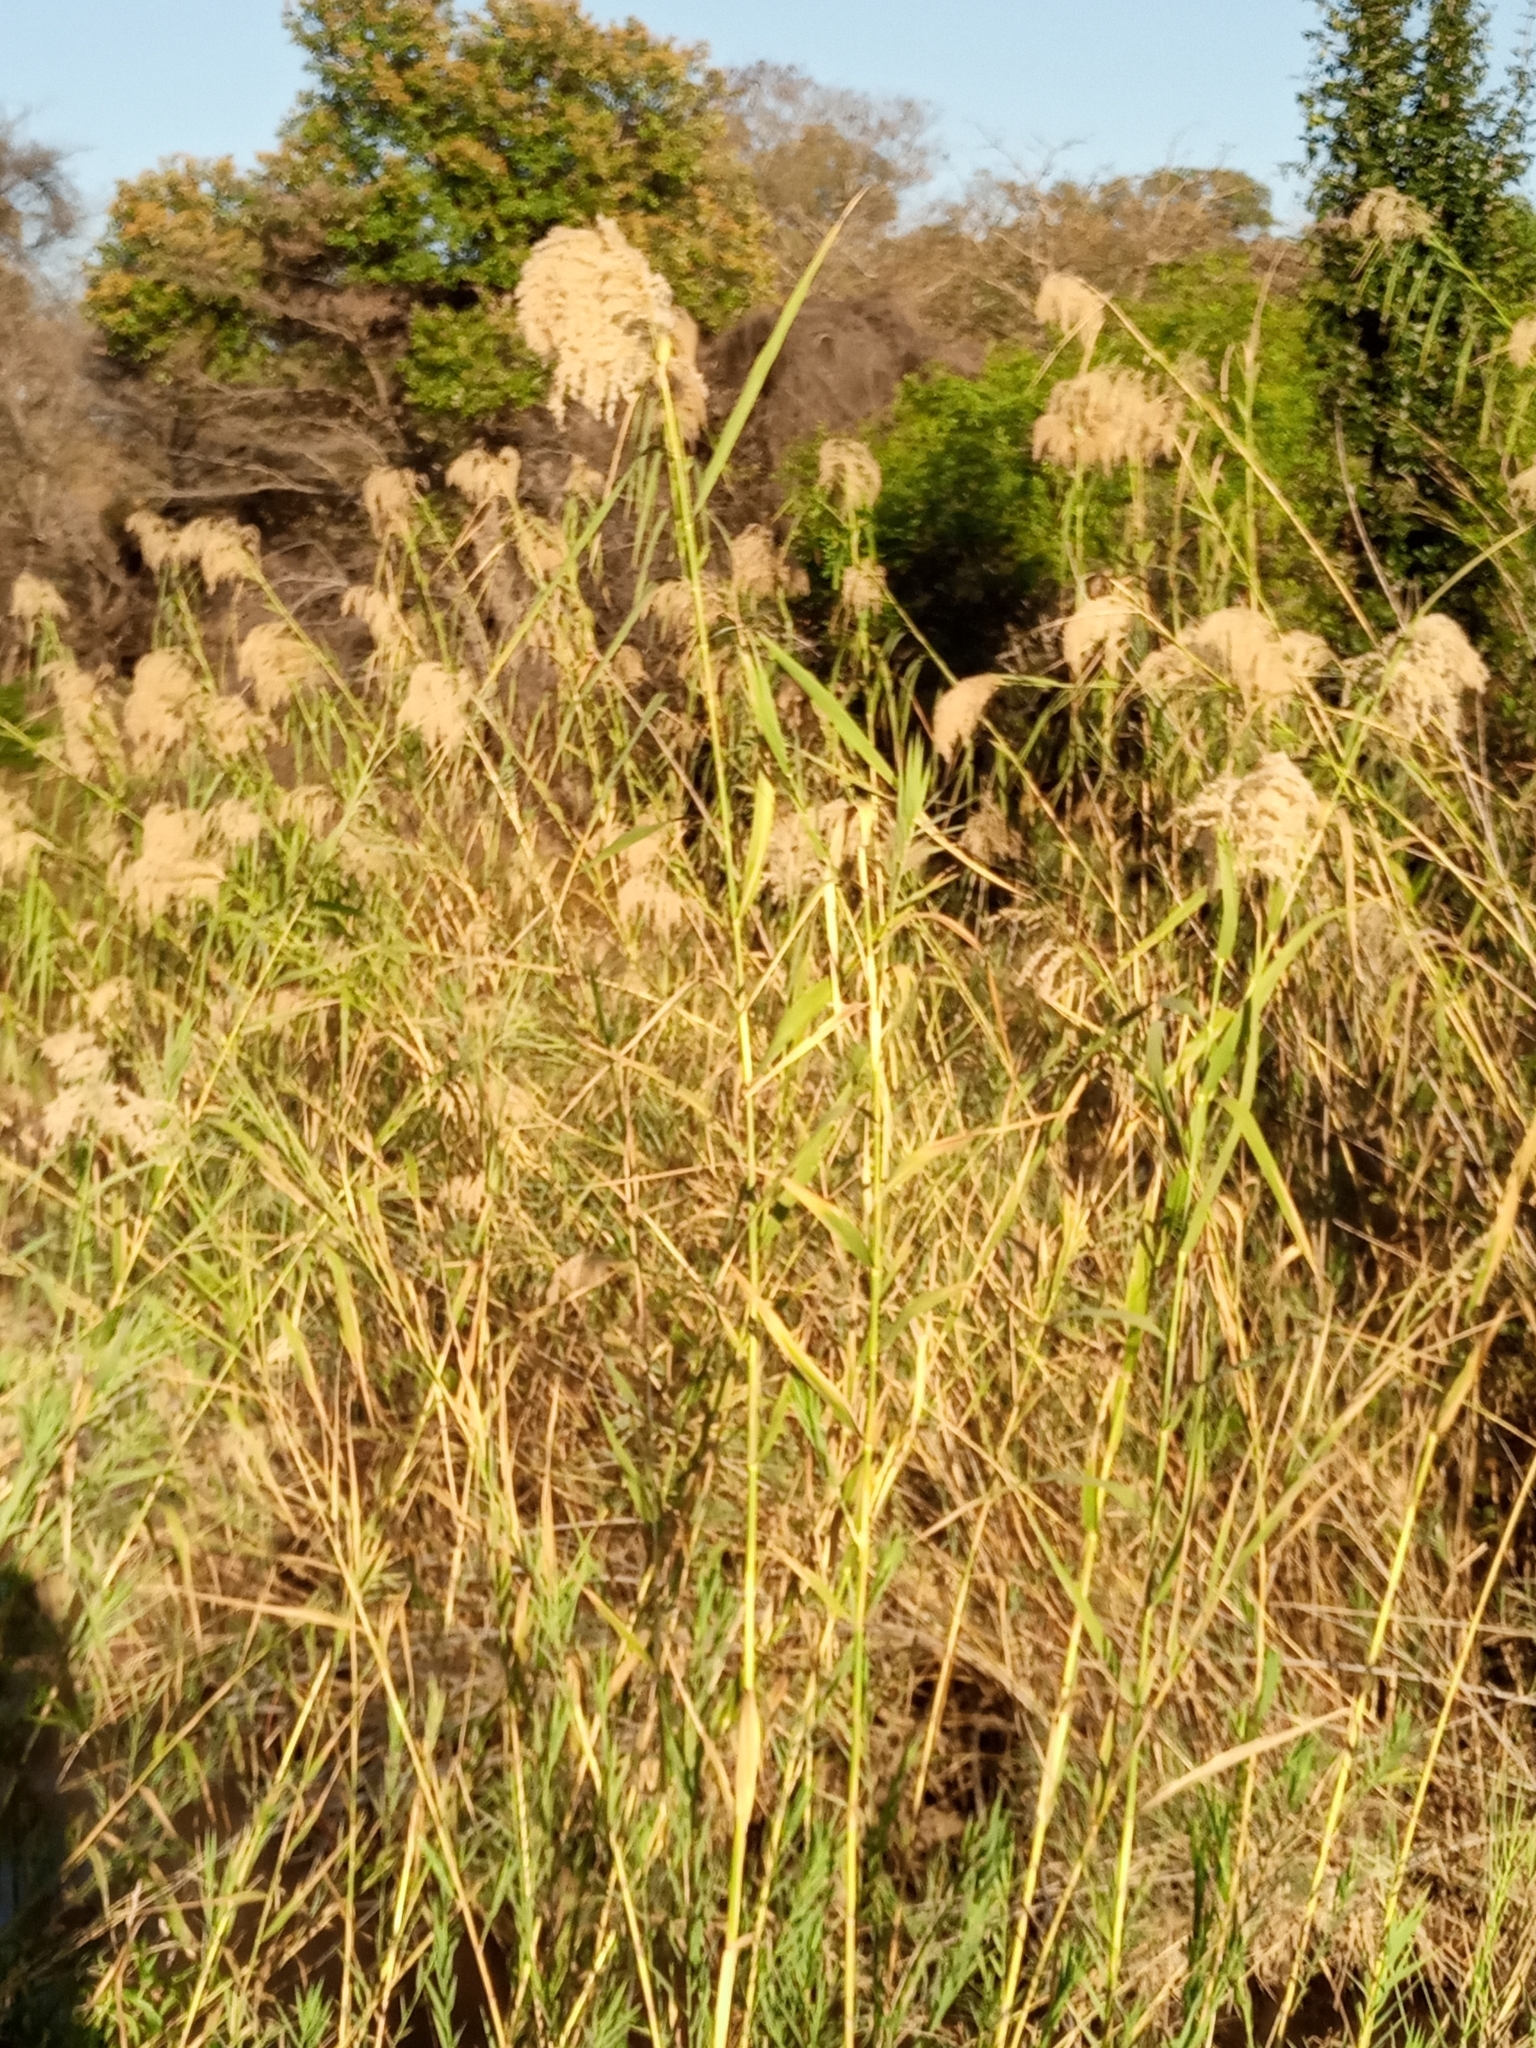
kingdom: Plantae
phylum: Tracheophyta
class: Liliopsida
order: Poales
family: Poaceae
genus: Phragmites
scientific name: Phragmites mauritianus
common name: Reed grass
